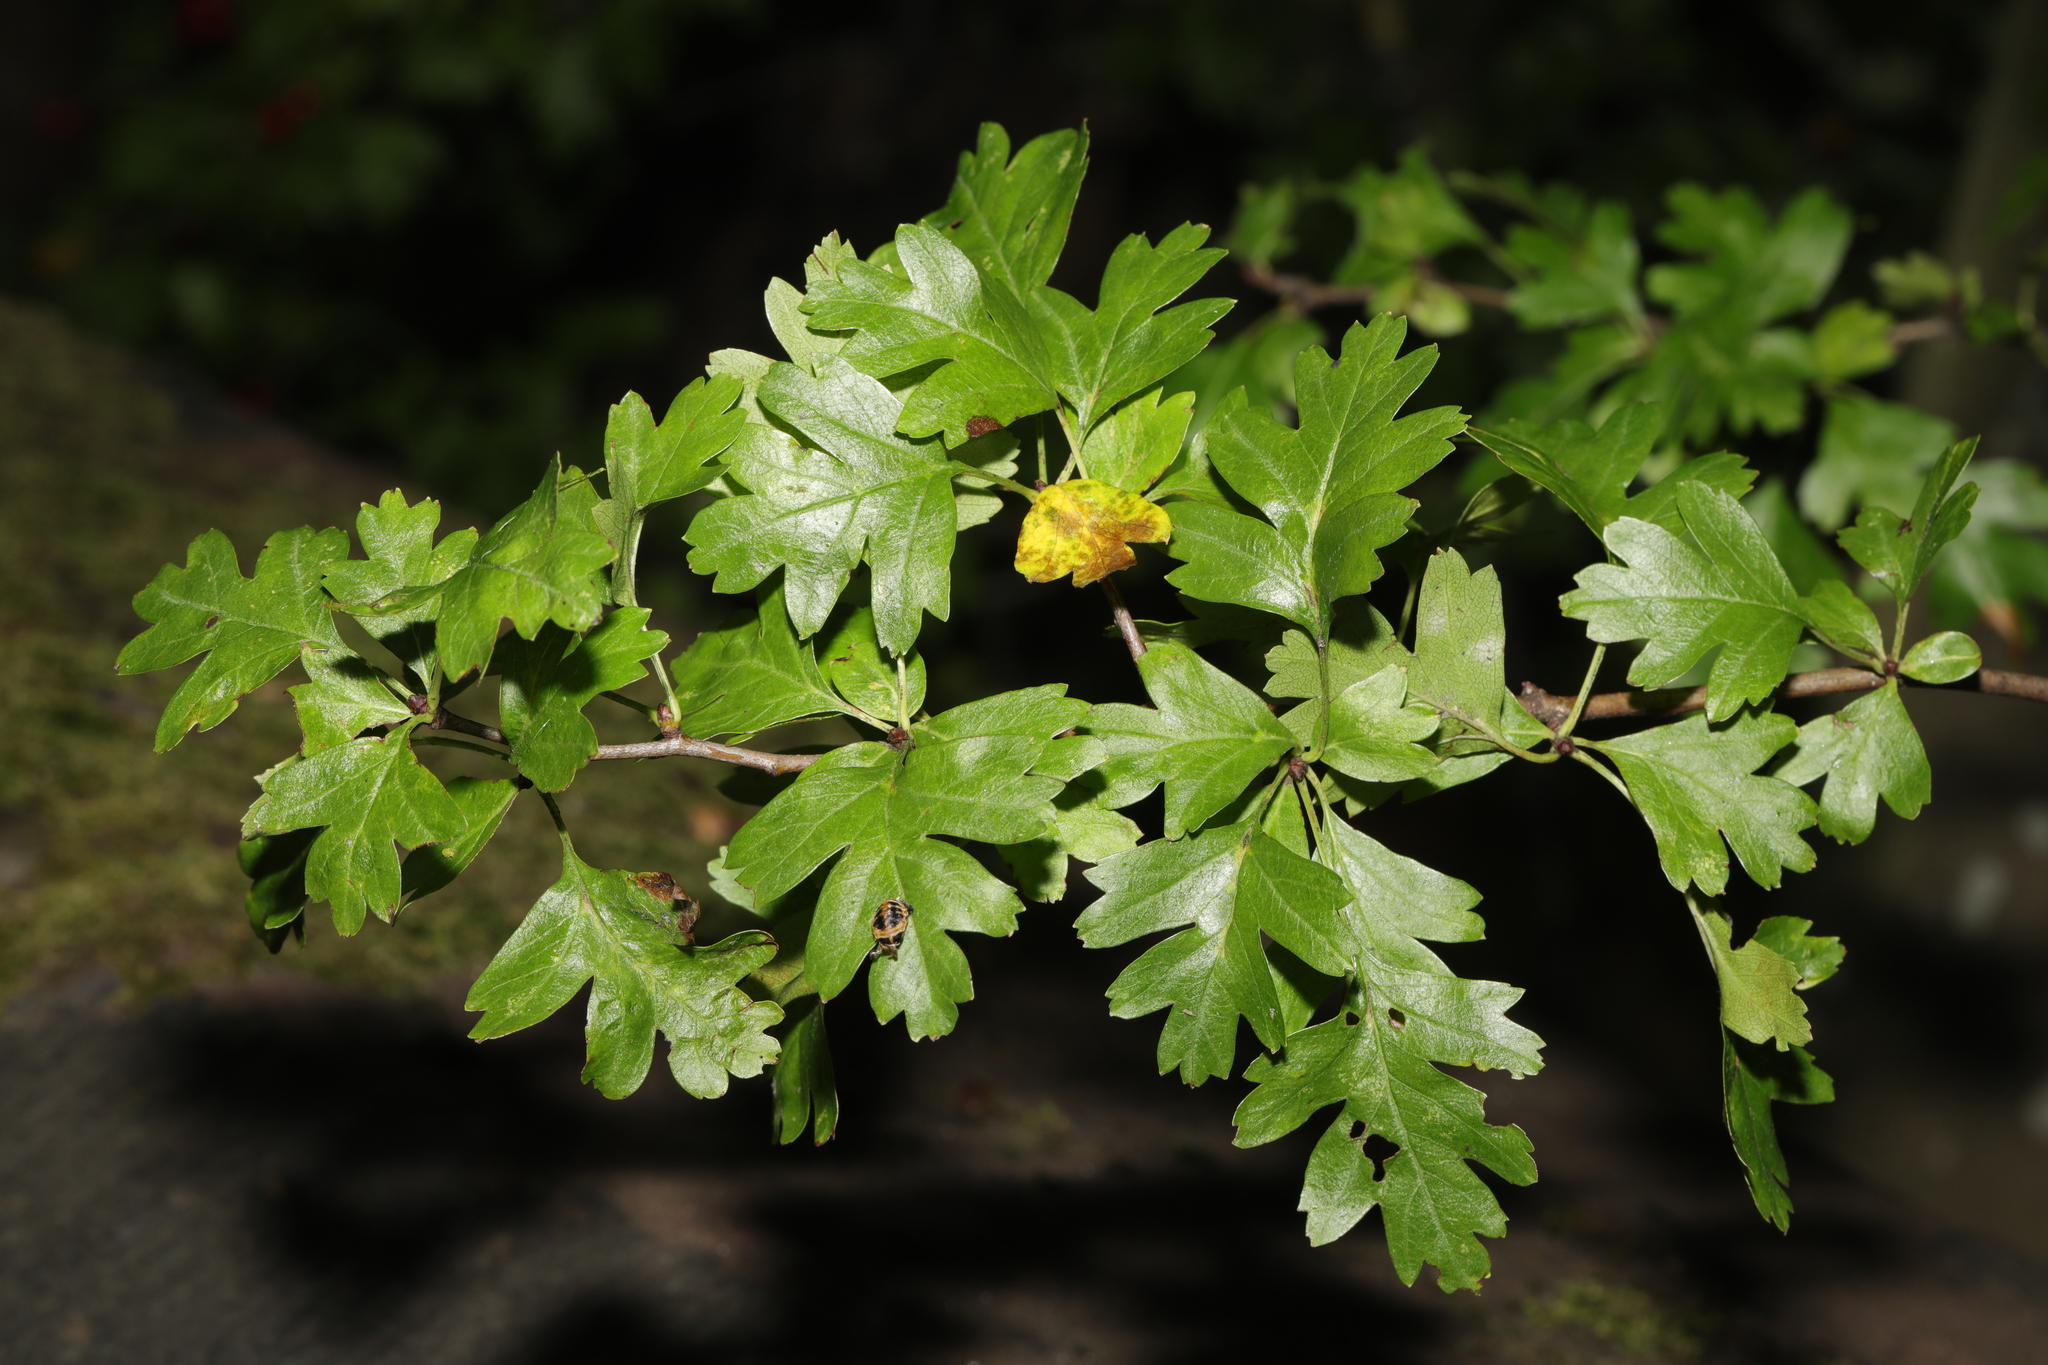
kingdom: Plantae
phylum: Tracheophyta
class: Magnoliopsida
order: Rosales
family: Rosaceae
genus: Crataegus
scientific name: Crataegus monogyna
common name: Hawthorn
